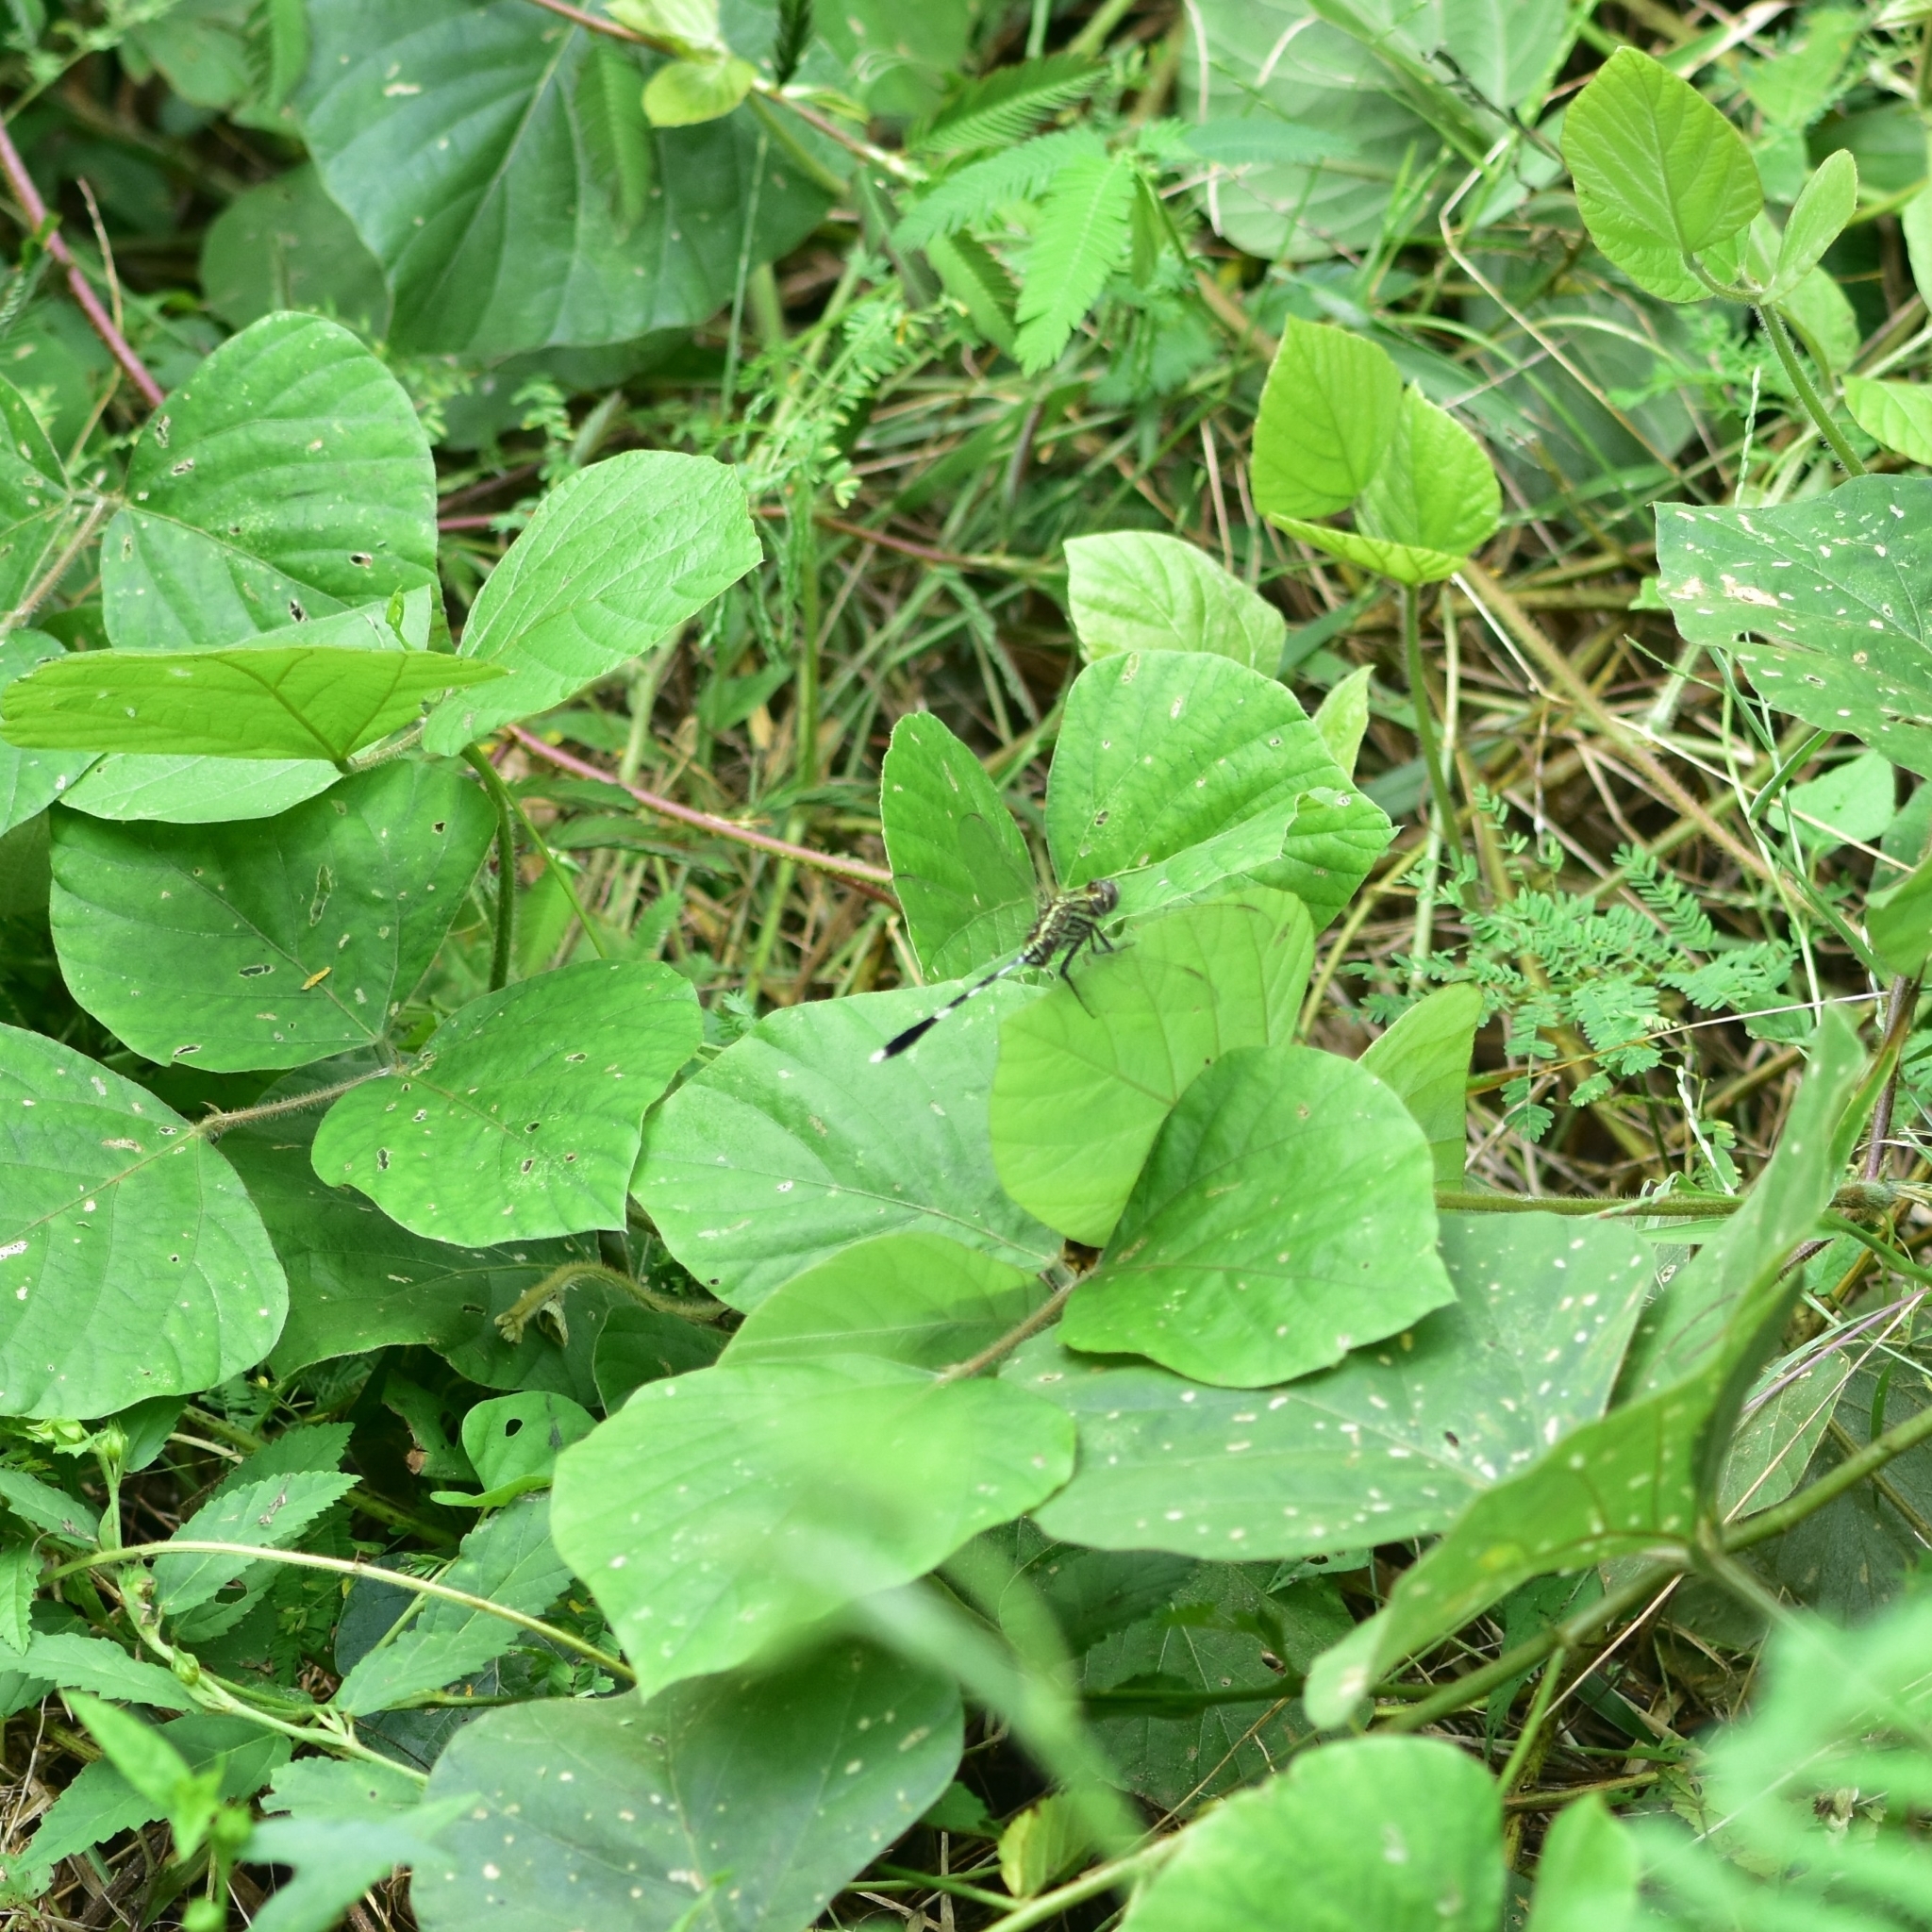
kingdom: Animalia
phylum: Arthropoda
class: Insecta
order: Odonata
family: Libellulidae
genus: Orthetrum
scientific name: Orthetrum sabina
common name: Slender skimmer
